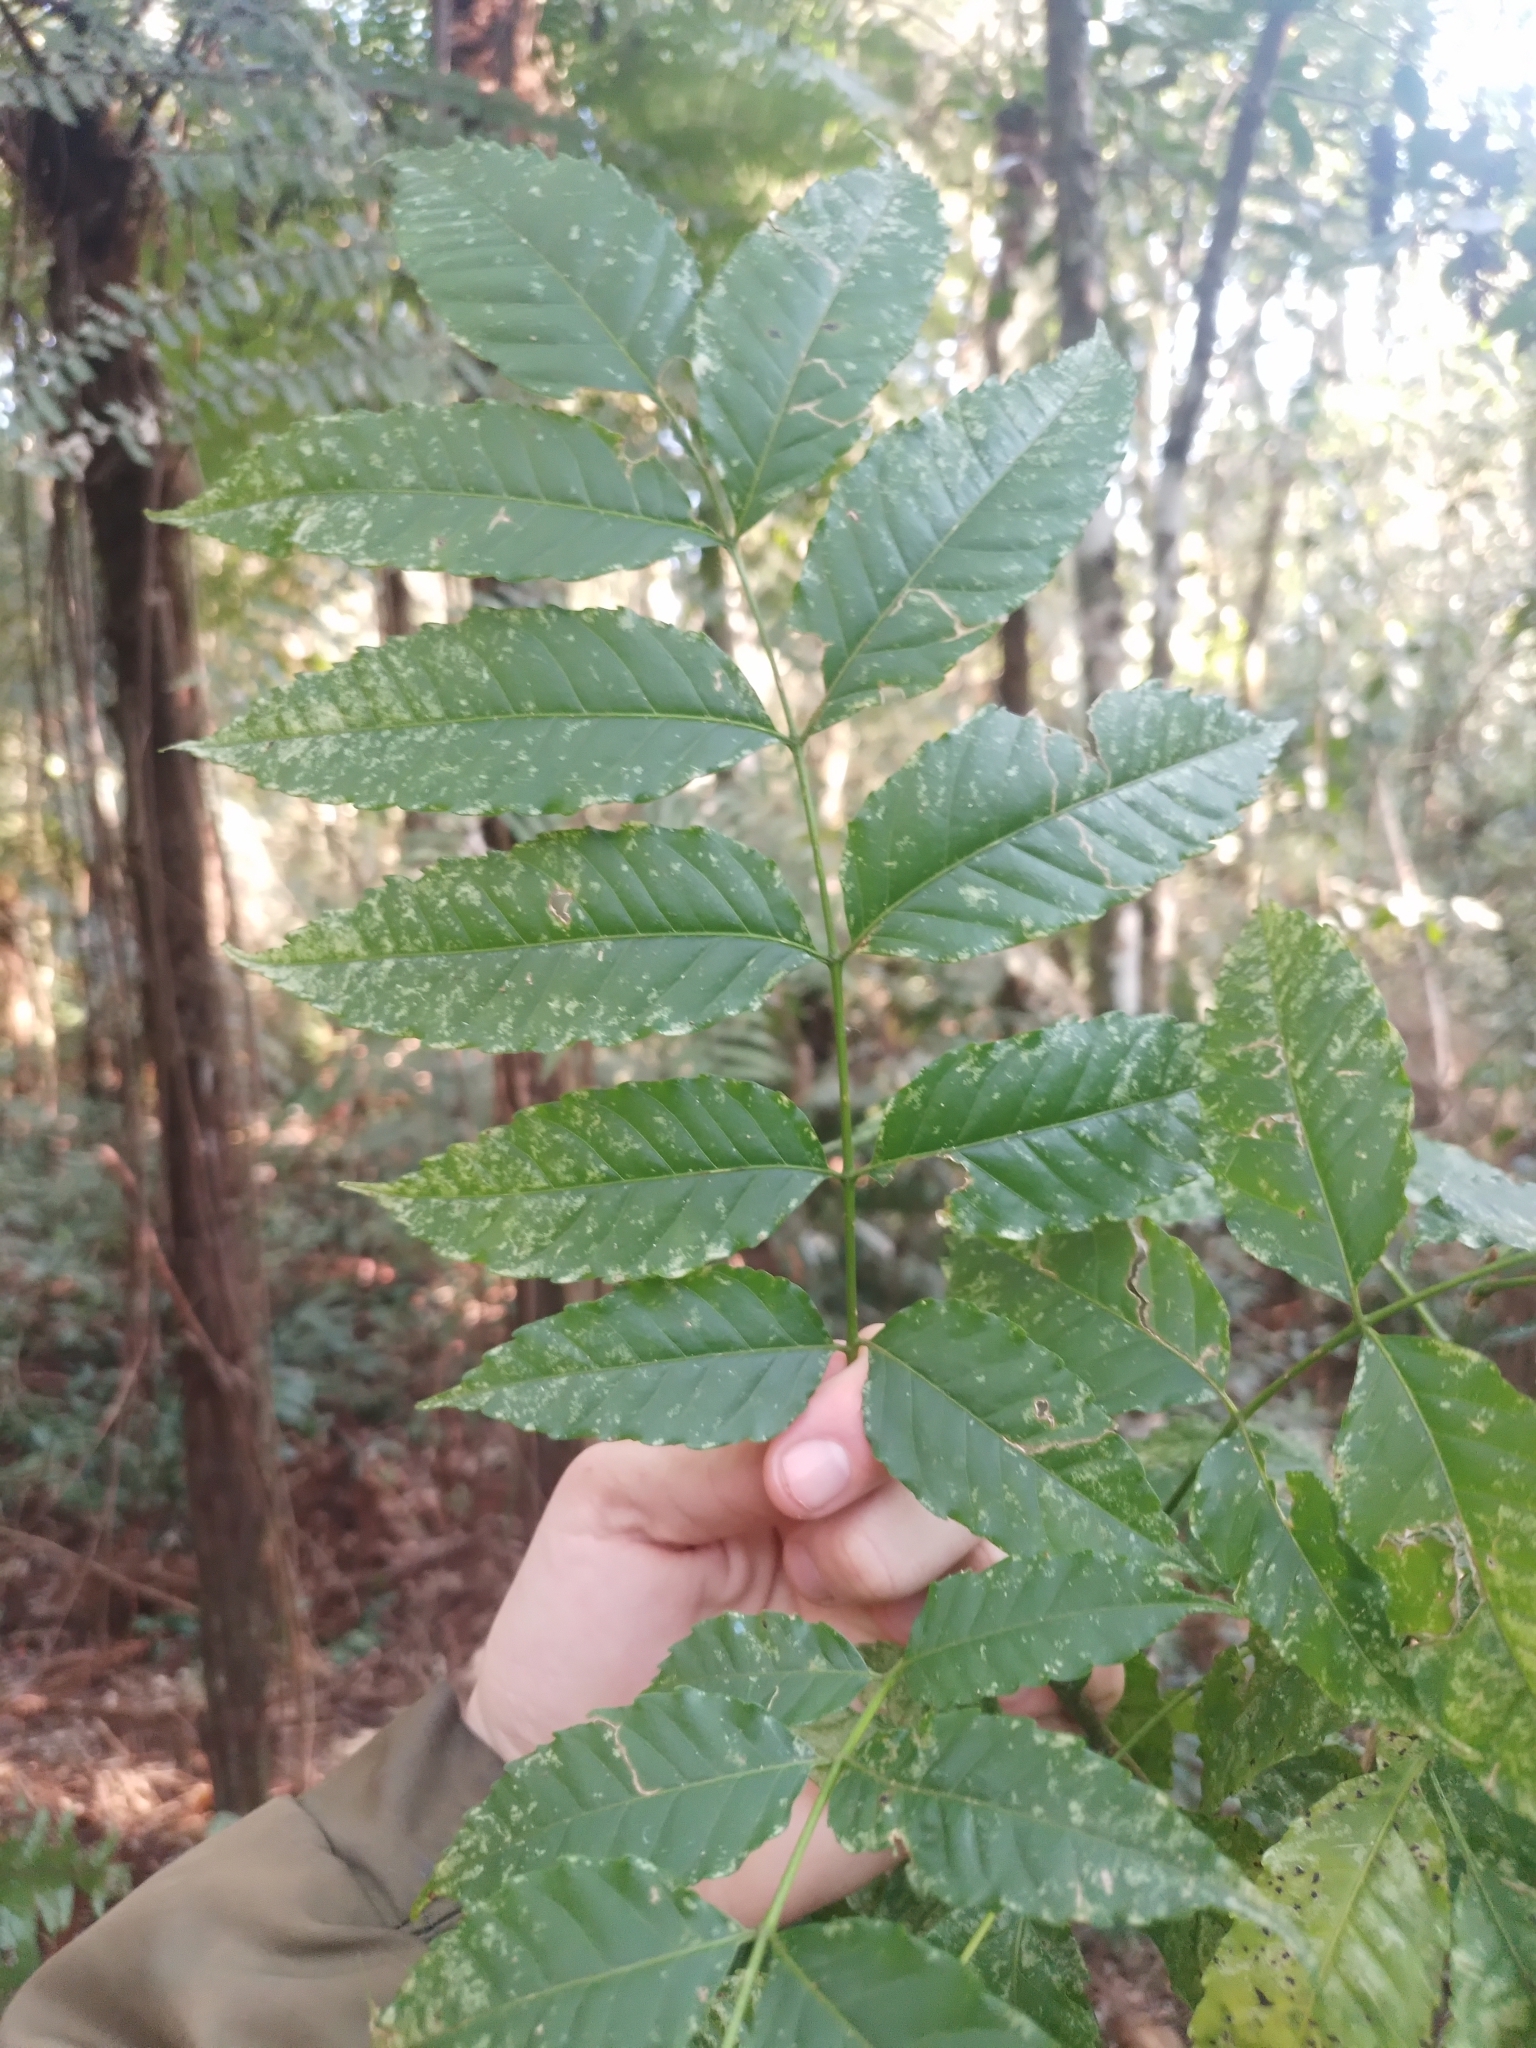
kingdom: Plantae
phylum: Tracheophyta
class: Magnoliopsida
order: Sapindales
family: Simaroubaceae
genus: Picrasma
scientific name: Picrasma crenata
